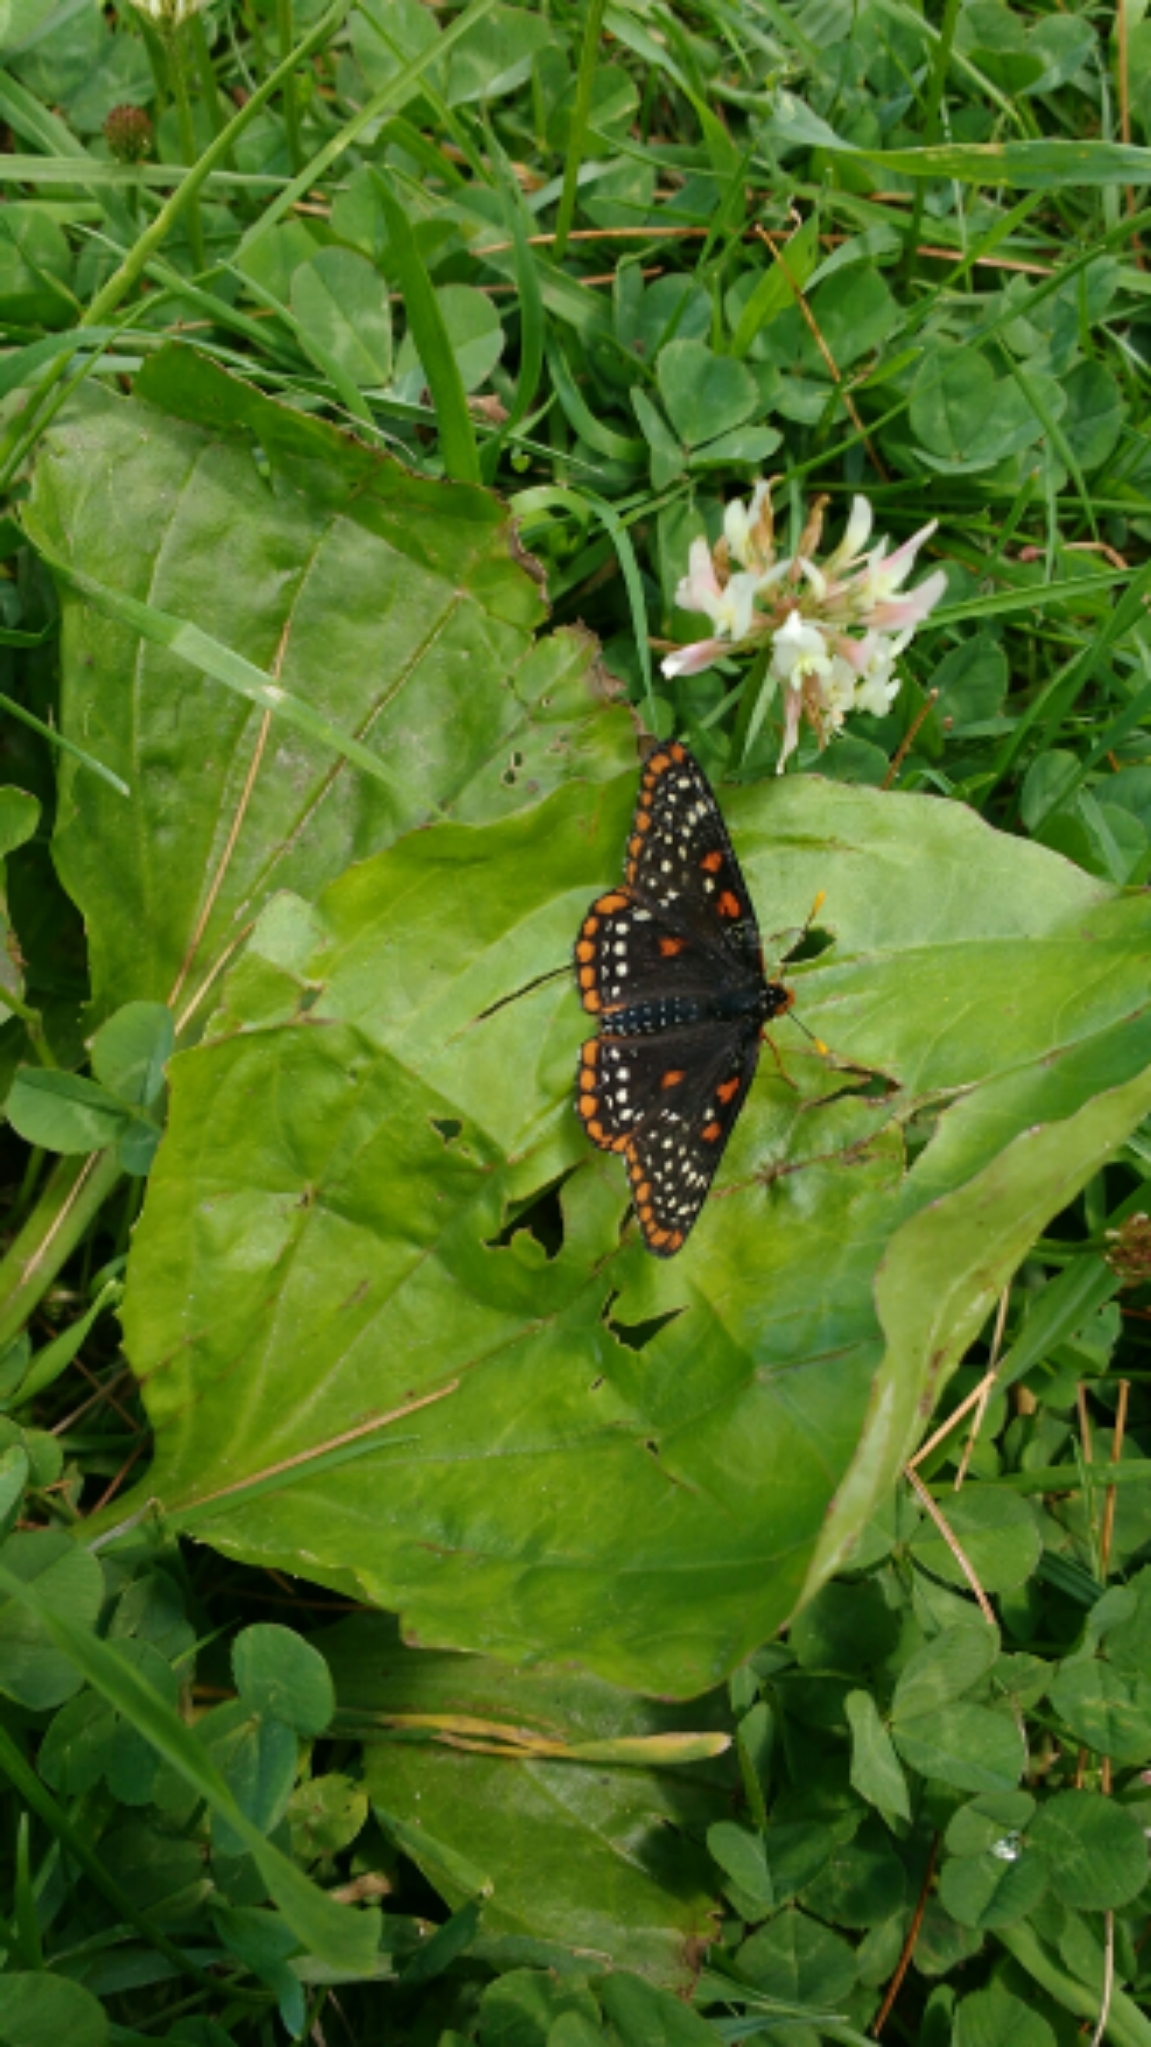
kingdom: Animalia
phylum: Arthropoda
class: Insecta
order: Lepidoptera
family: Nymphalidae
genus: Euphydryas
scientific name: Euphydryas phaeton
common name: Baltimore checkerspot
